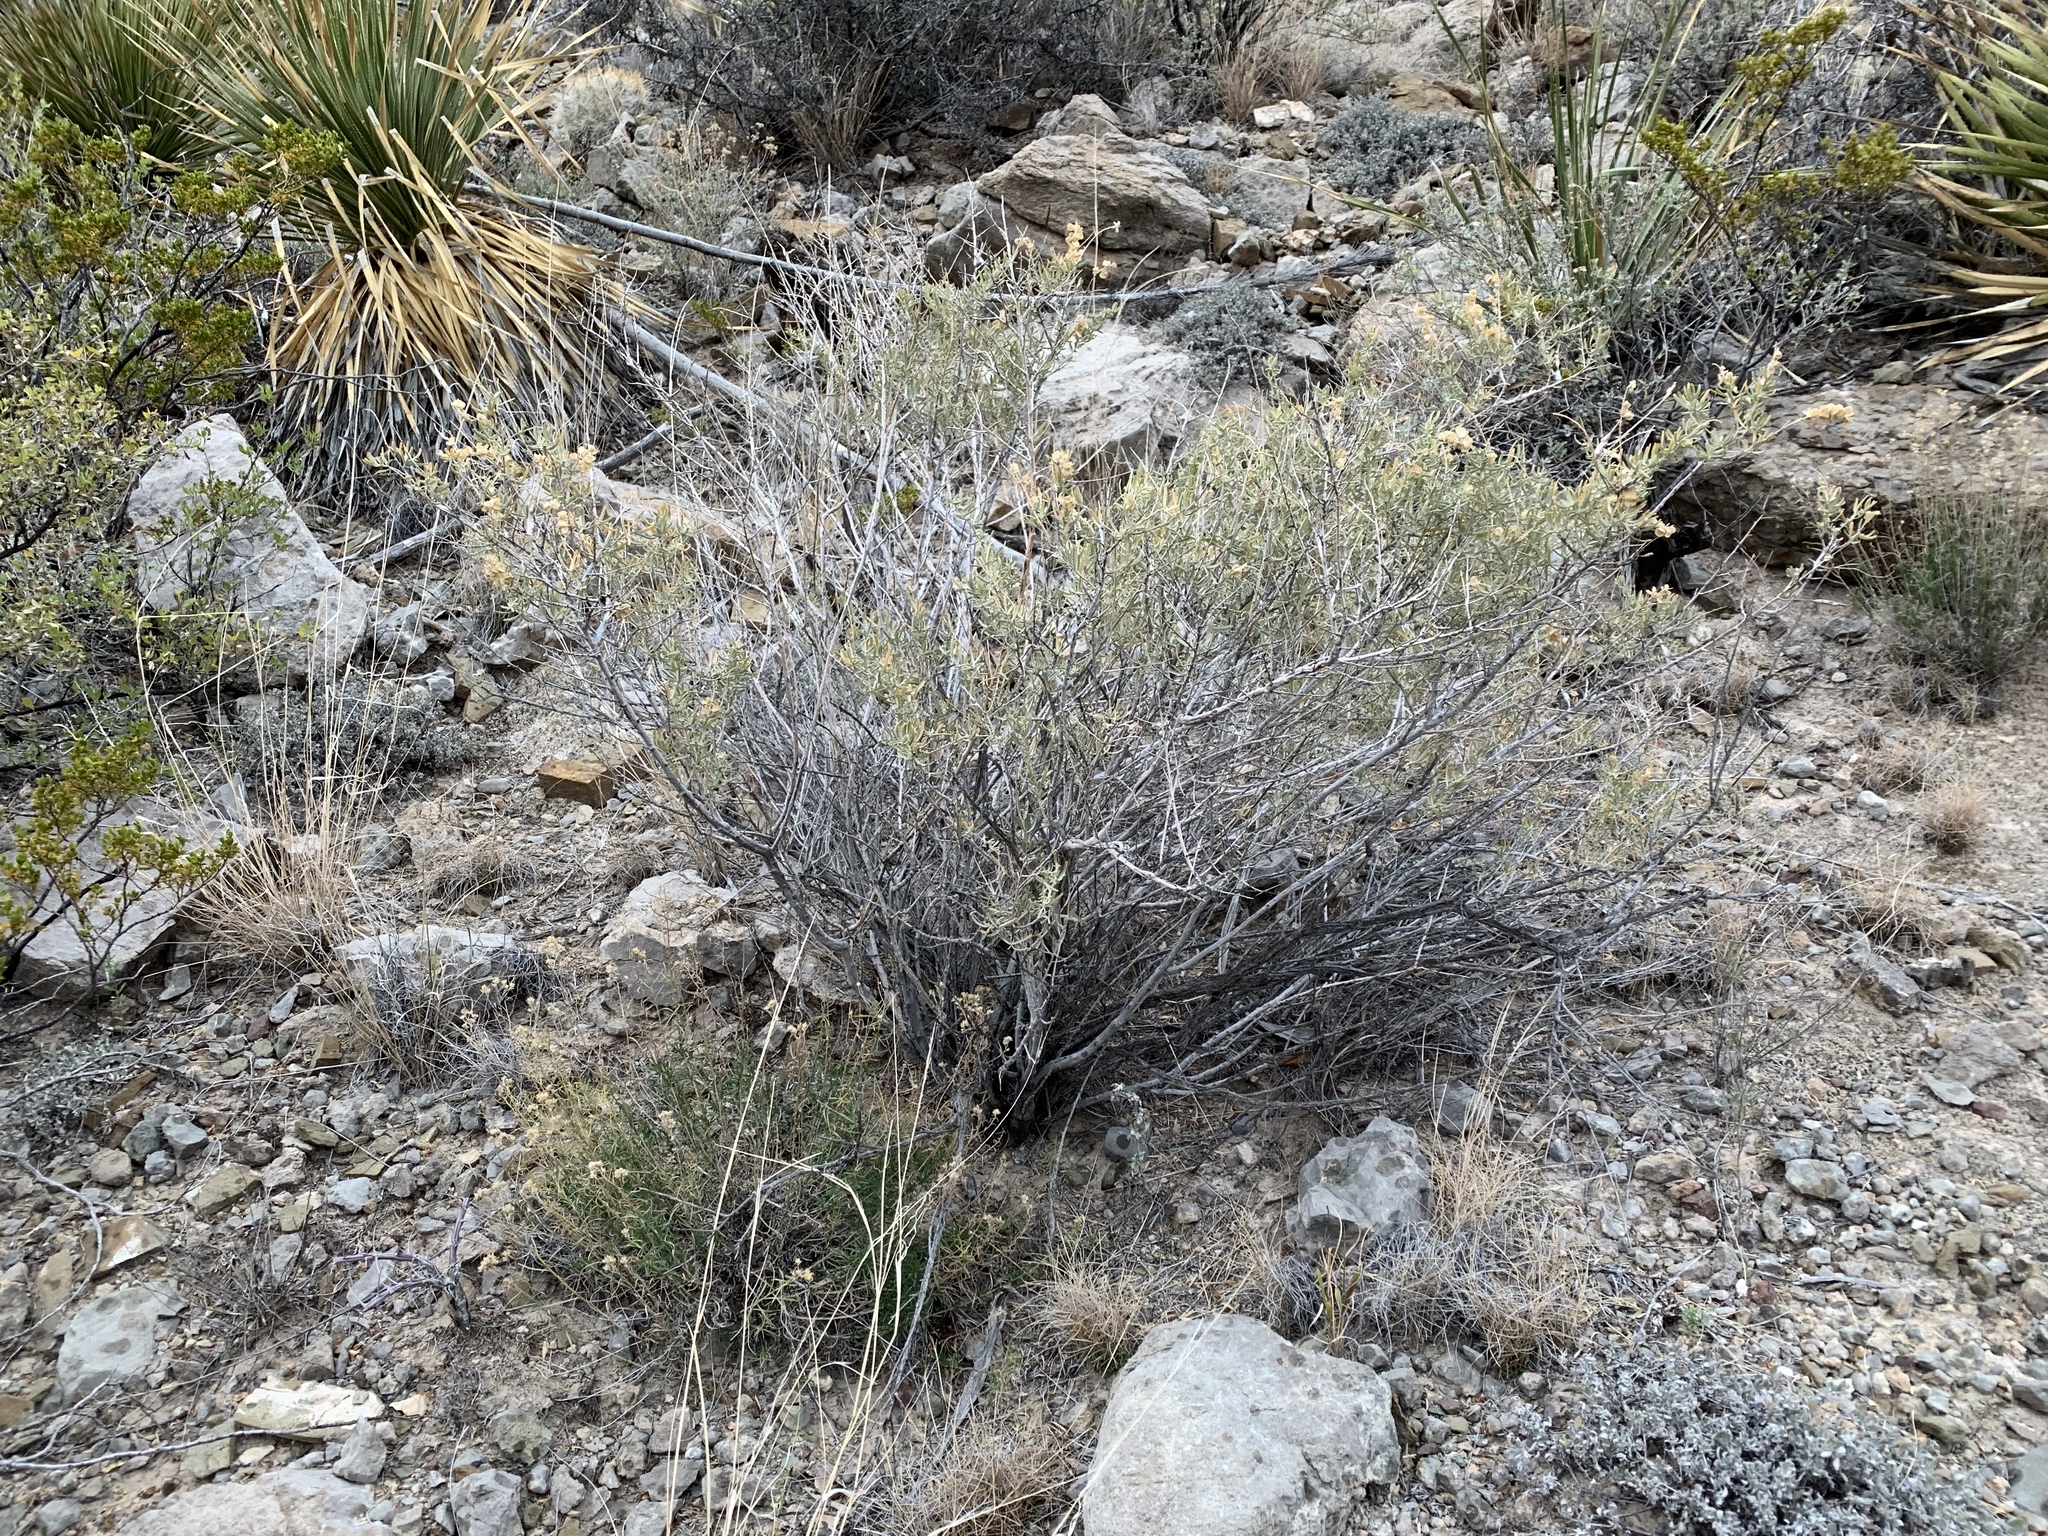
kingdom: Plantae
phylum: Tracheophyta
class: Magnoliopsida
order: Caryophyllales
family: Amaranthaceae
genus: Atriplex
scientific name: Atriplex canescens
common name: Four-wing saltbush
